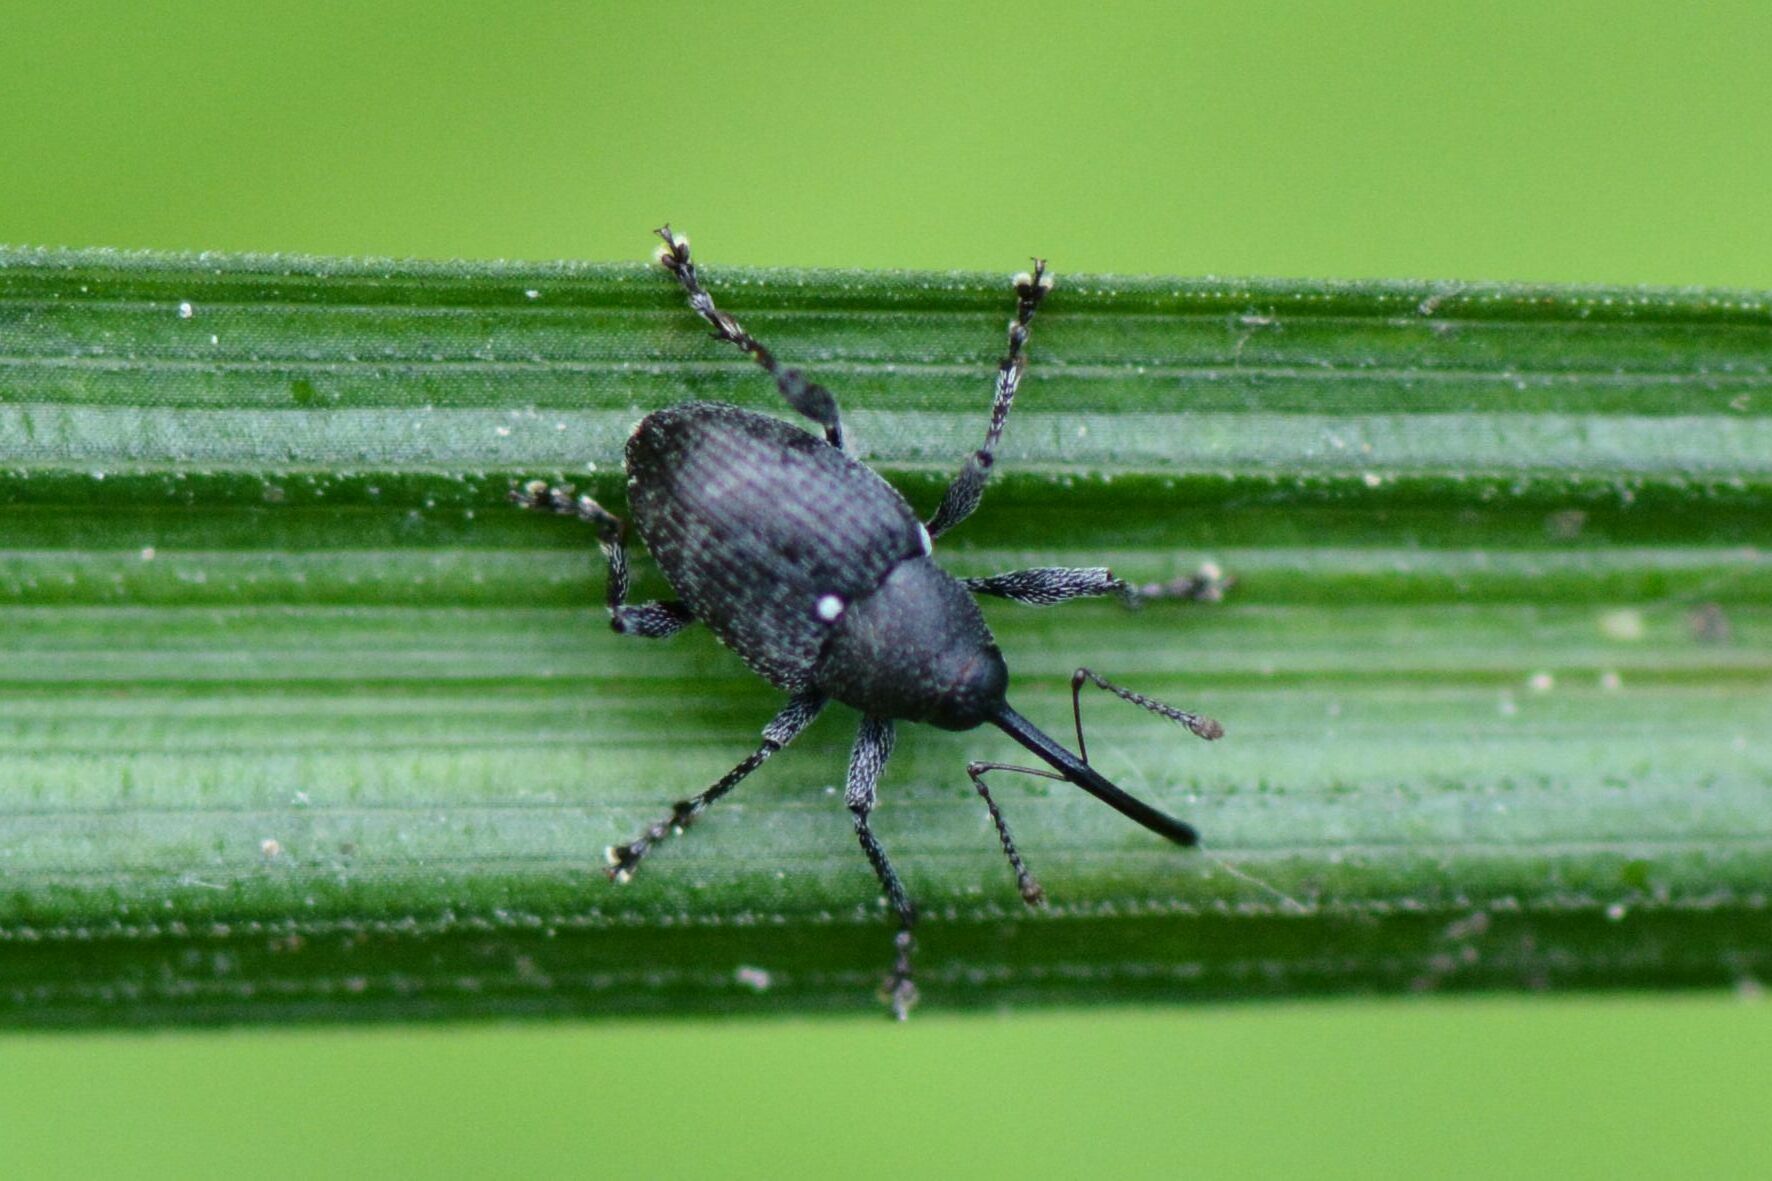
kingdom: Animalia
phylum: Arthropoda
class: Insecta
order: Coleoptera
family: Curculionidae
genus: Curculio
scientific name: Curculio vicetinus
